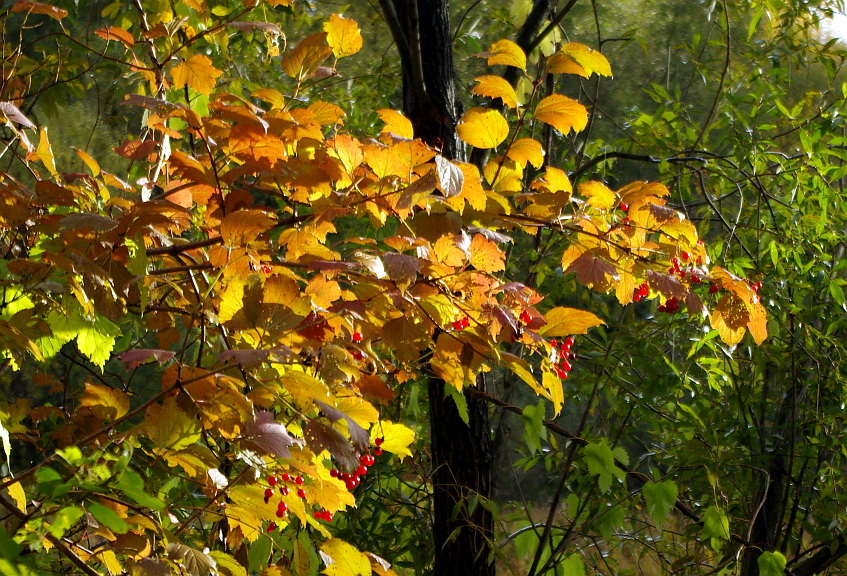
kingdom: Plantae
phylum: Tracheophyta
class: Magnoliopsida
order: Dipsacales
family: Viburnaceae
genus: Viburnum
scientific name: Viburnum opulus
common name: Guelder-rose
